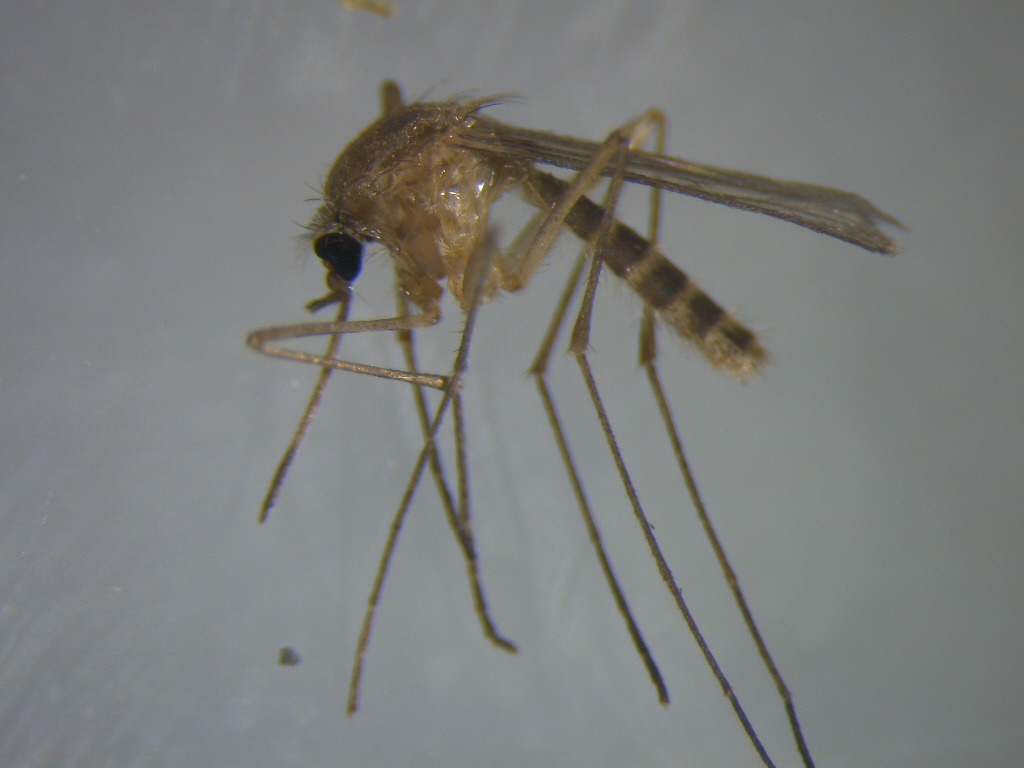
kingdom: Animalia
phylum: Arthropoda
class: Insecta
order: Diptera
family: Culicidae
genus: Culex
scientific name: Culex quinquefasciatus
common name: Southern house mosquito
